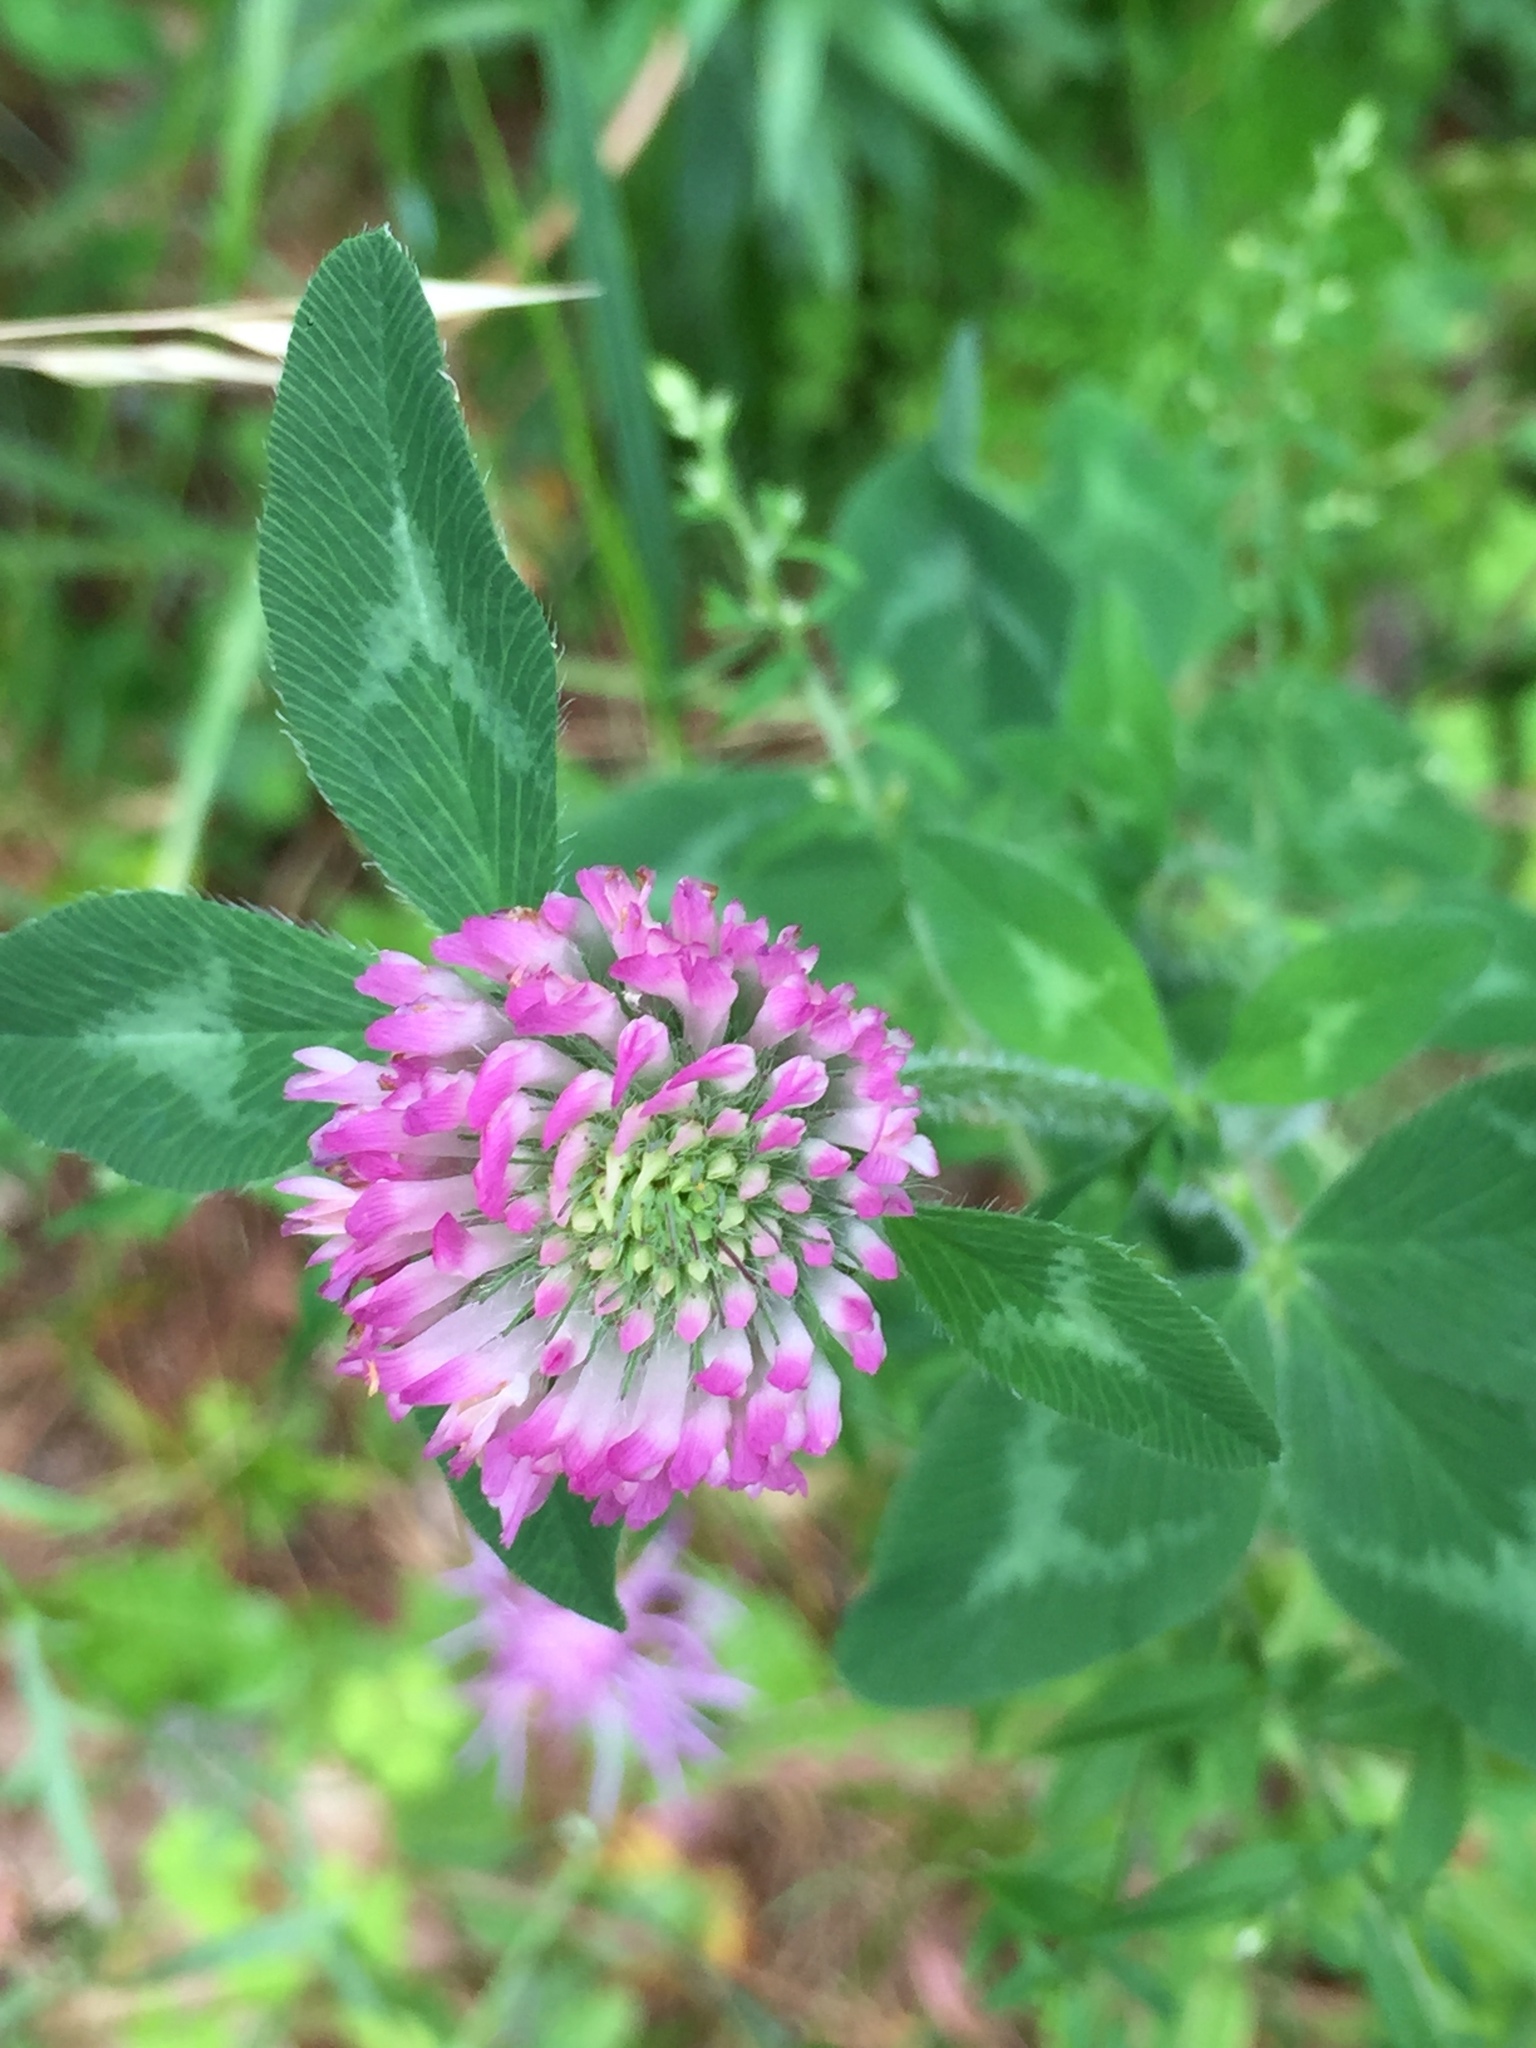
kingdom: Plantae
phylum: Tracheophyta
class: Magnoliopsida
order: Fabales
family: Fabaceae
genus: Trifolium
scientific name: Trifolium pratense
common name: Red clover
